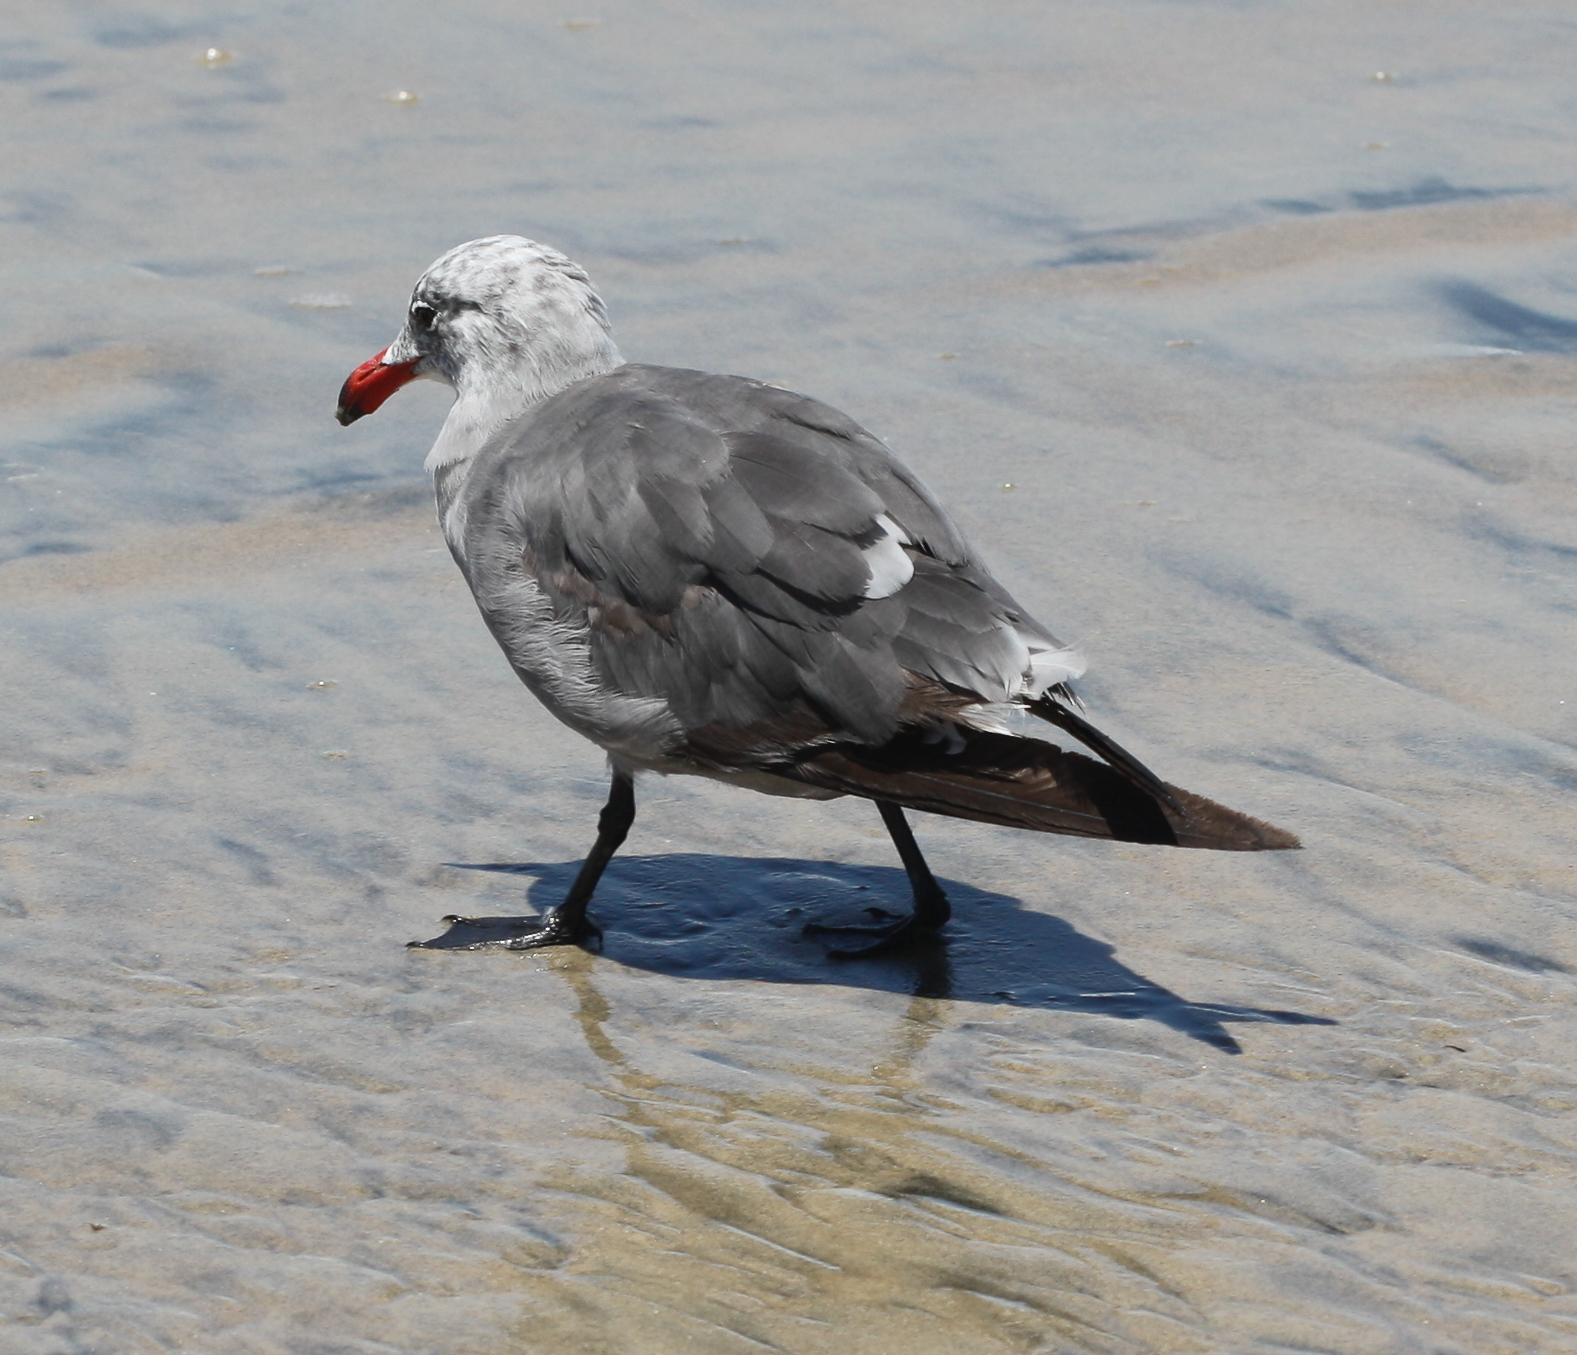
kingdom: Animalia
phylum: Chordata
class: Aves
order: Charadriiformes
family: Laridae
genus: Larus
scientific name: Larus heermanni
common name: Heermann's gull
